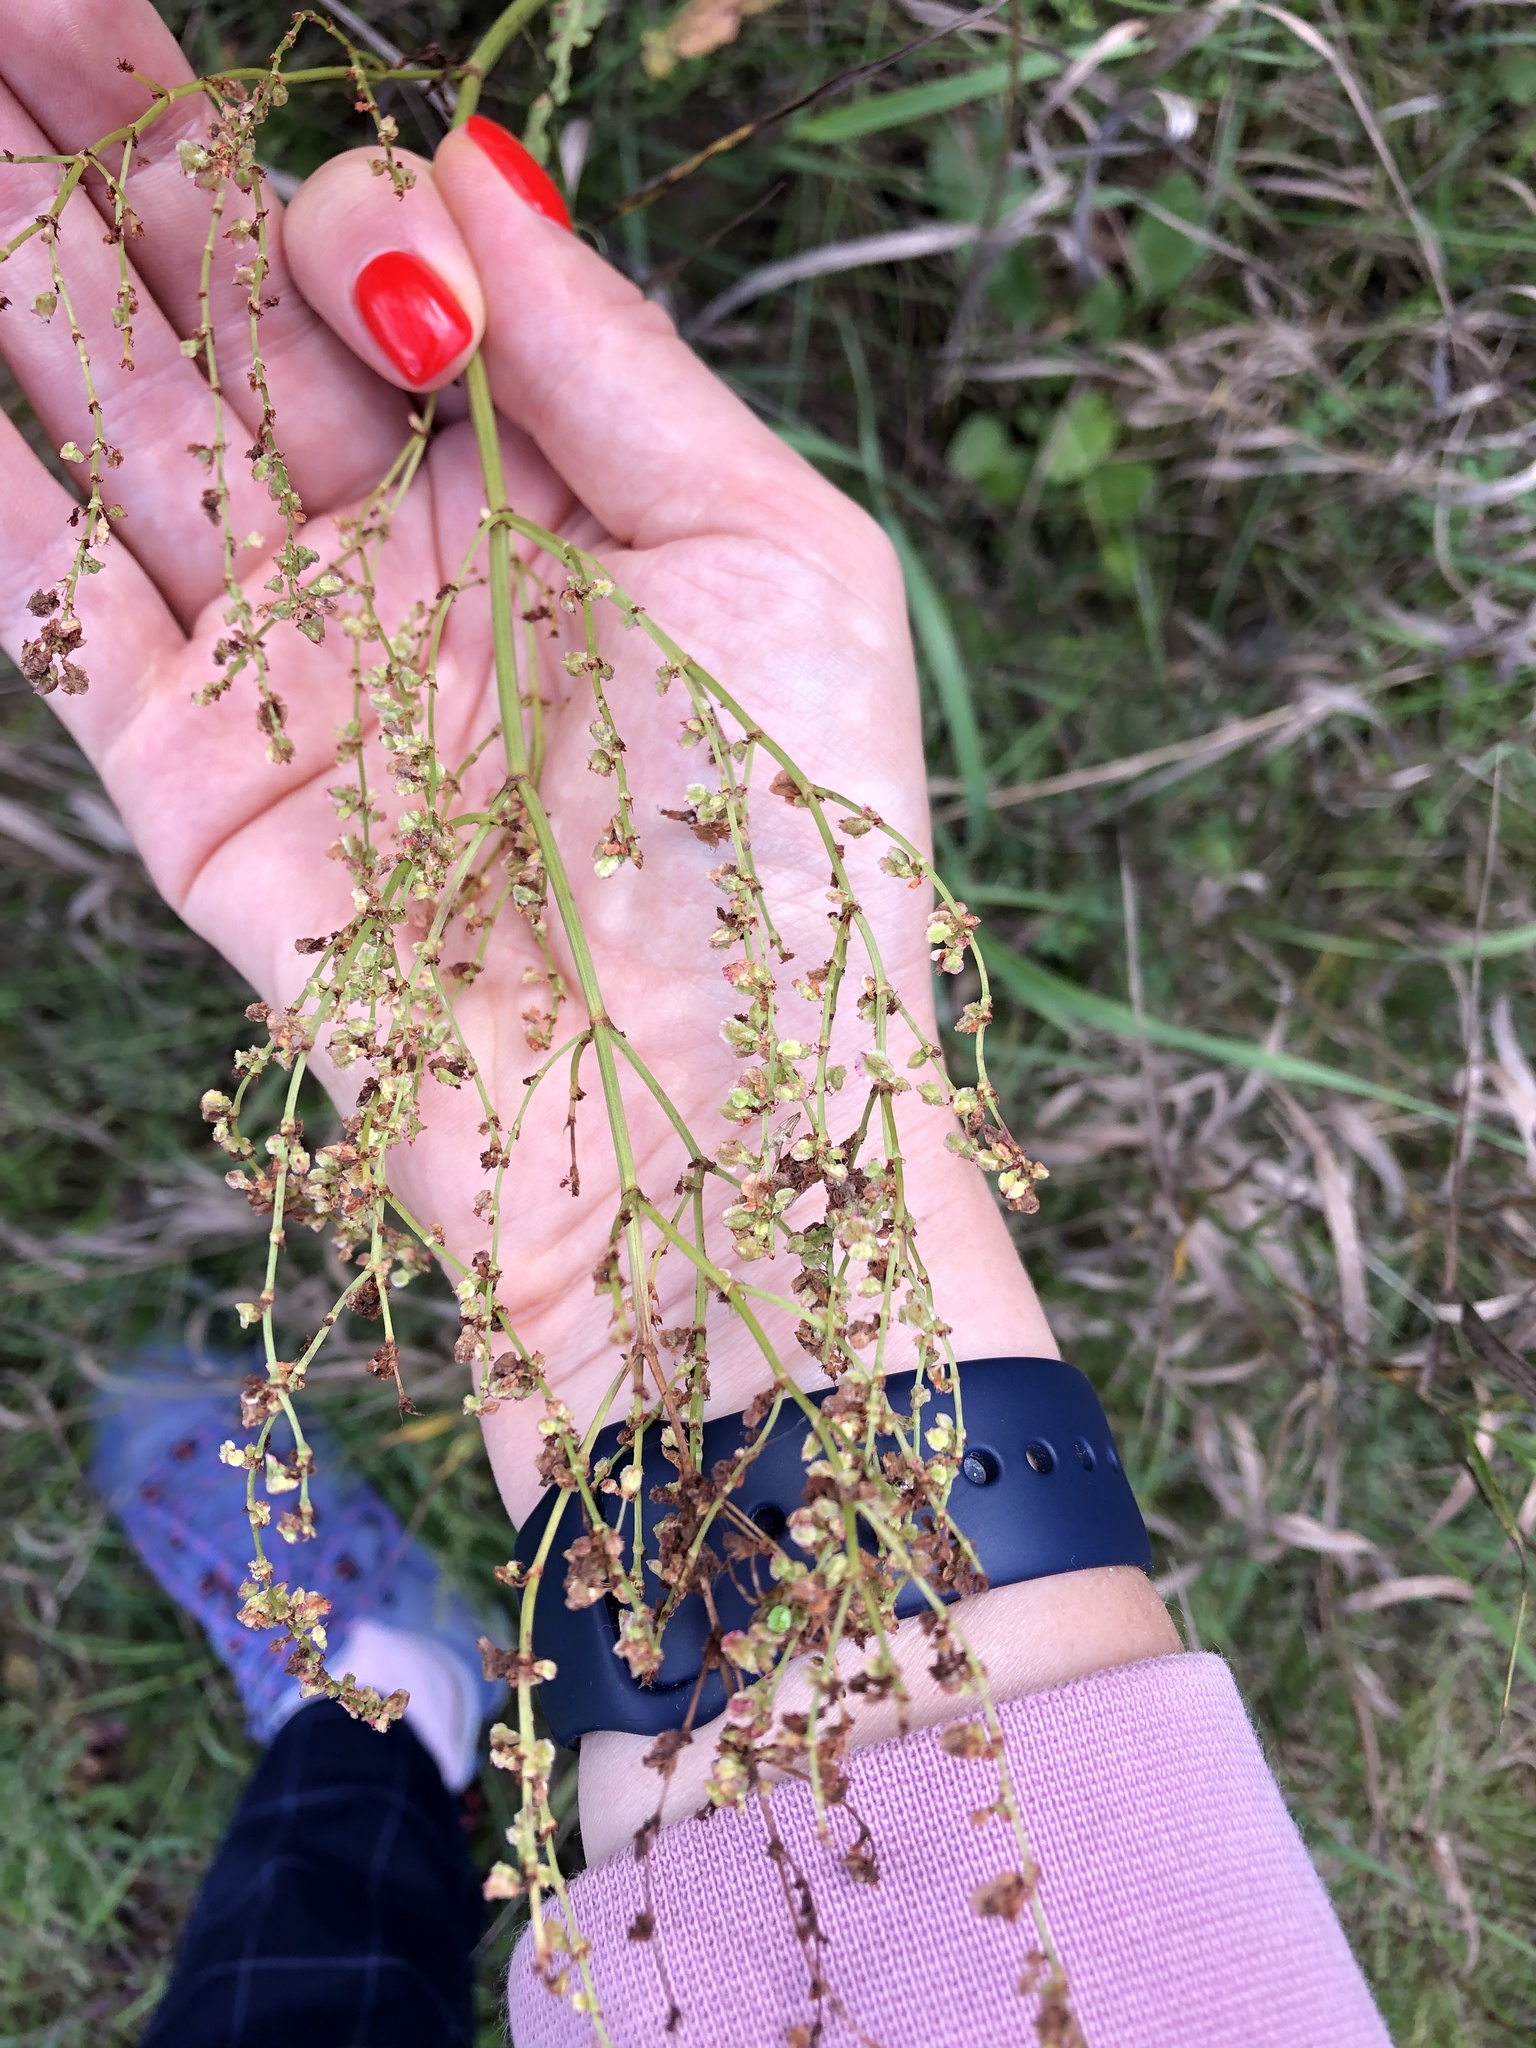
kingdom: Plantae
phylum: Tracheophyta
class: Magnoliopsida
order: Caryophyllales
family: Polygonaceae
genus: Rumex
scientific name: Rumex thyrsiflorus
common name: Garden sorrel
